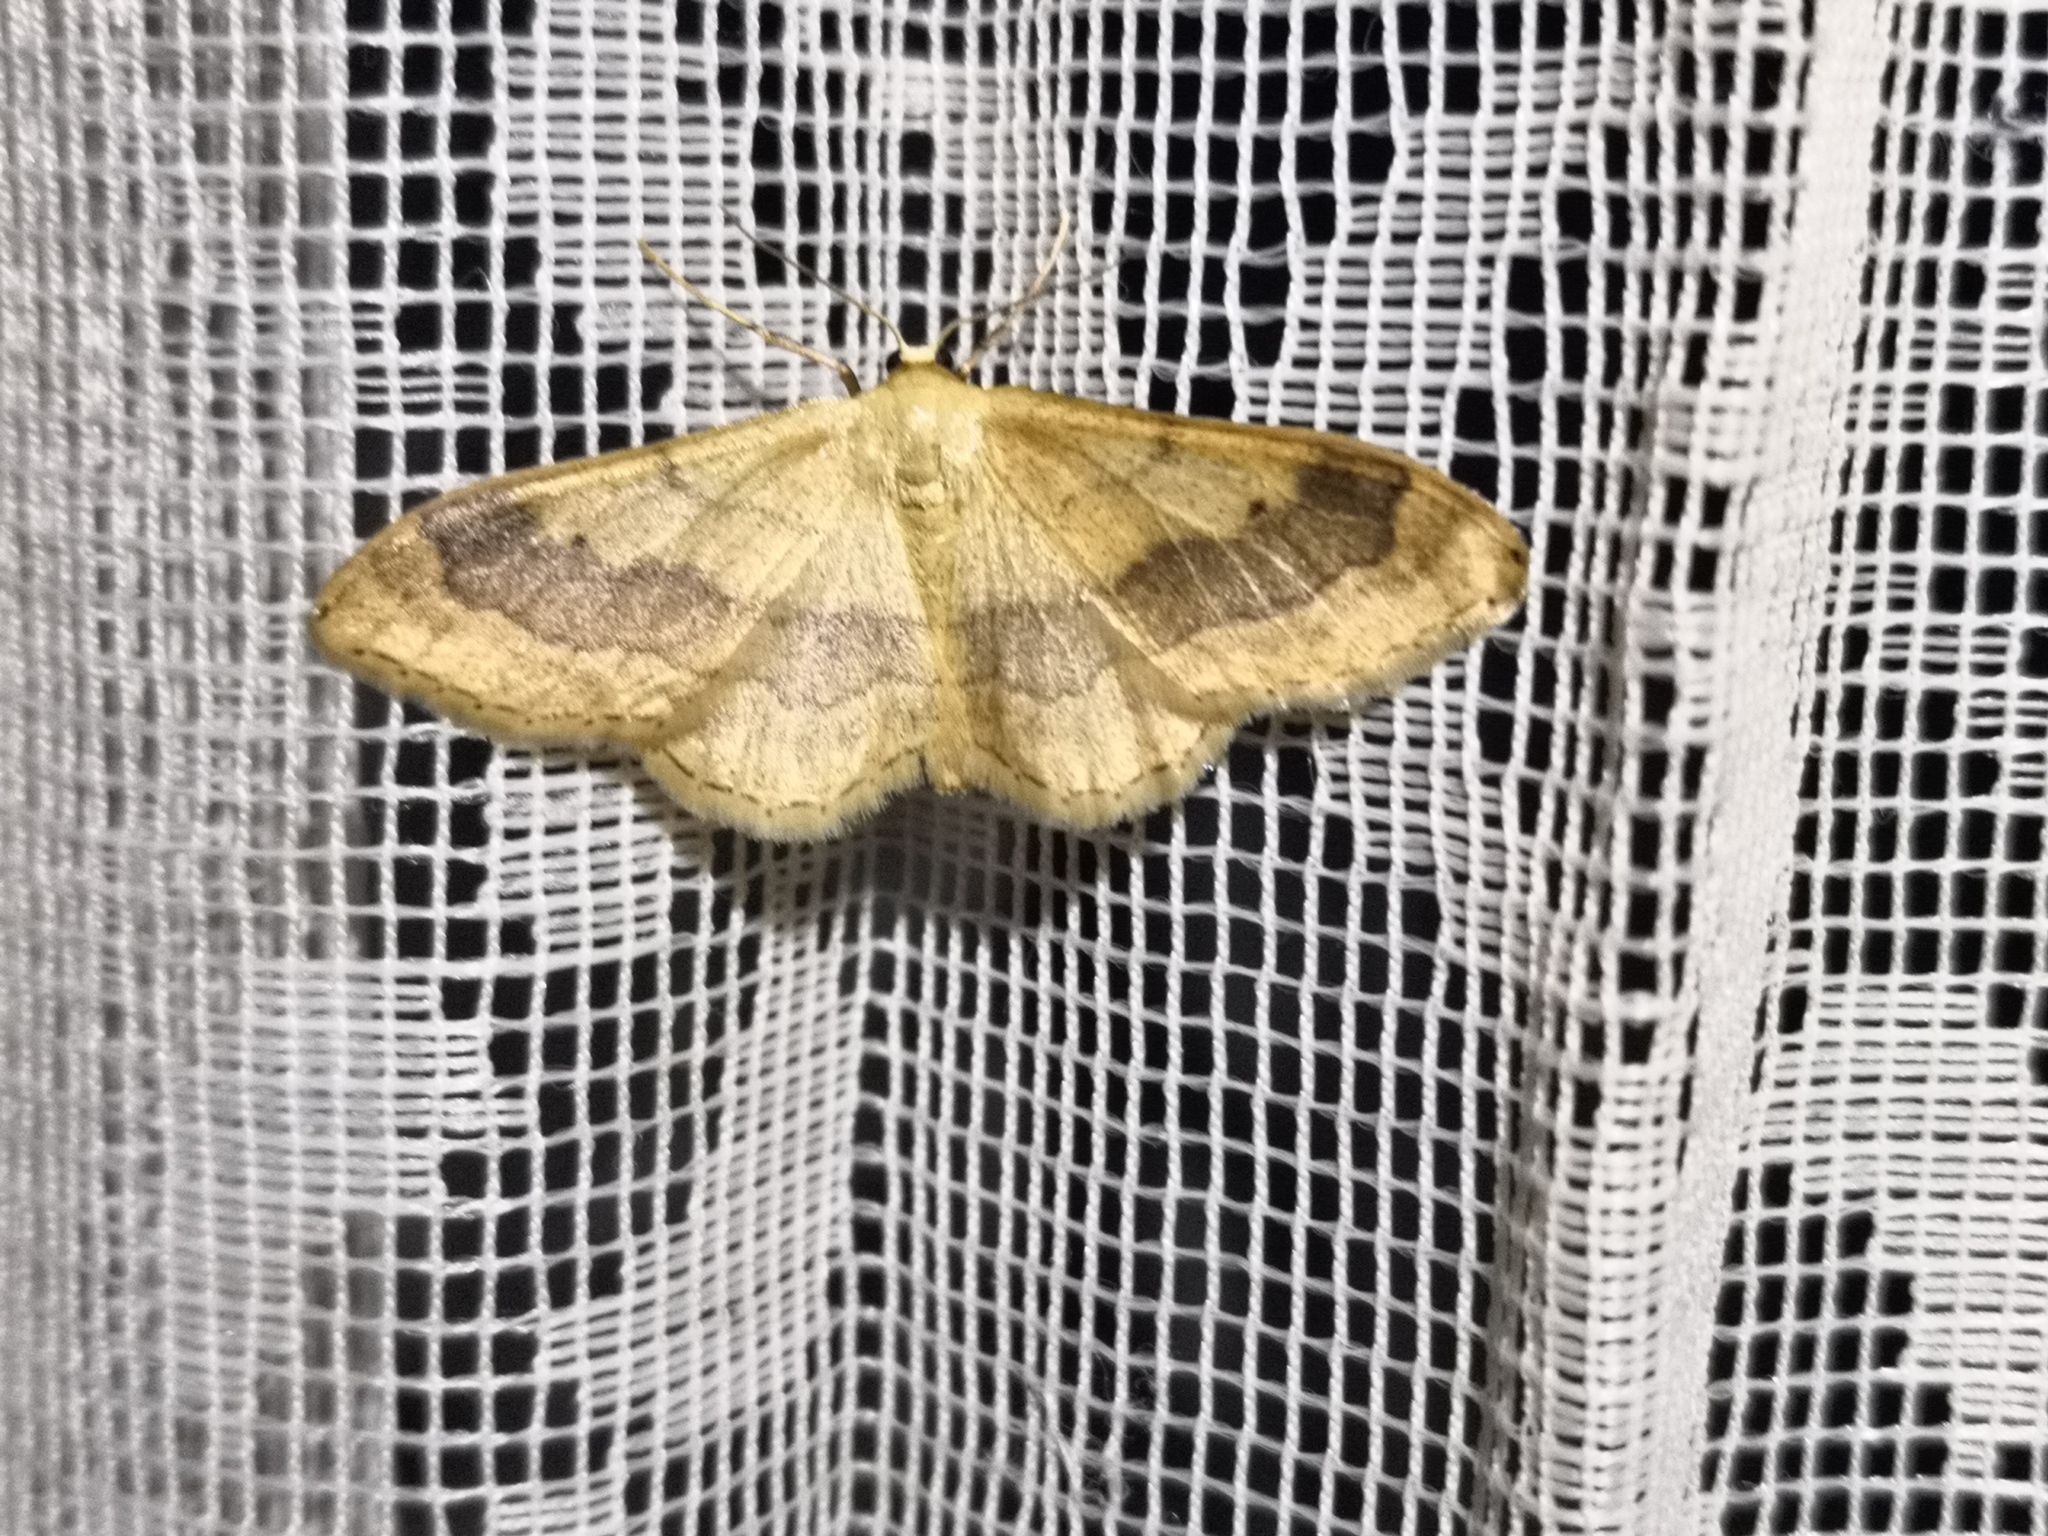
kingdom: Animalia
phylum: Arthropoda
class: Insecta
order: Lepidoptera
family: Geometridae
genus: Idaea
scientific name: Idaea aversata
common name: Riband wave
